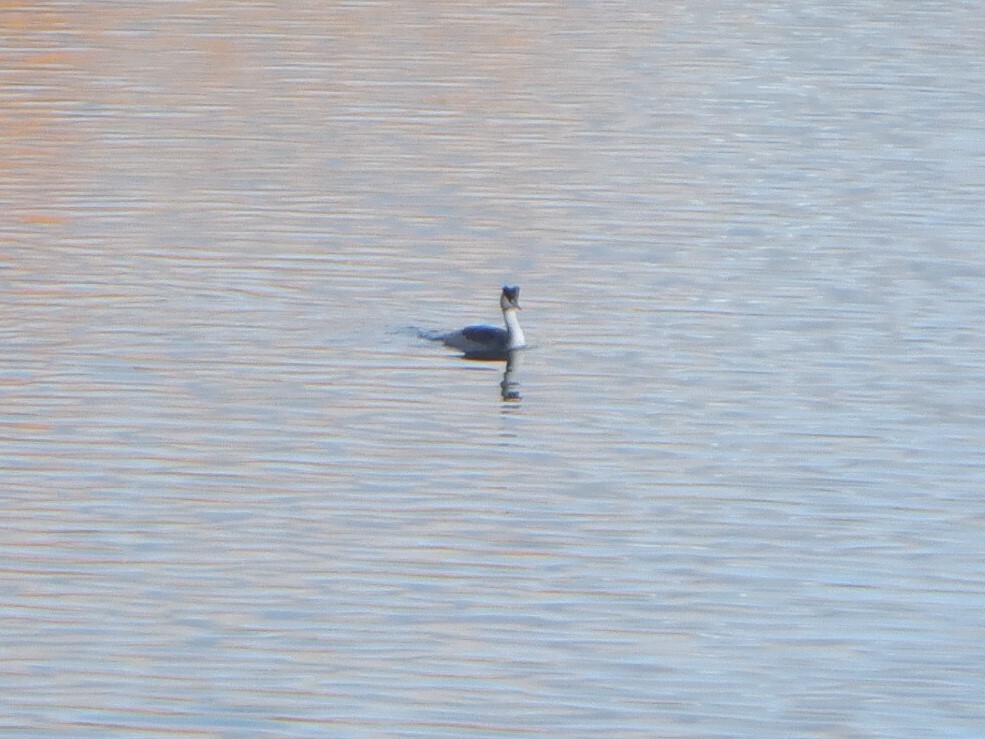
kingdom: Animalia
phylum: Chordata
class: Aves
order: Podicipediformes
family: Podicipedidae
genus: Podiceps
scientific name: Podiceps cristatus
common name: Great crested grebe
